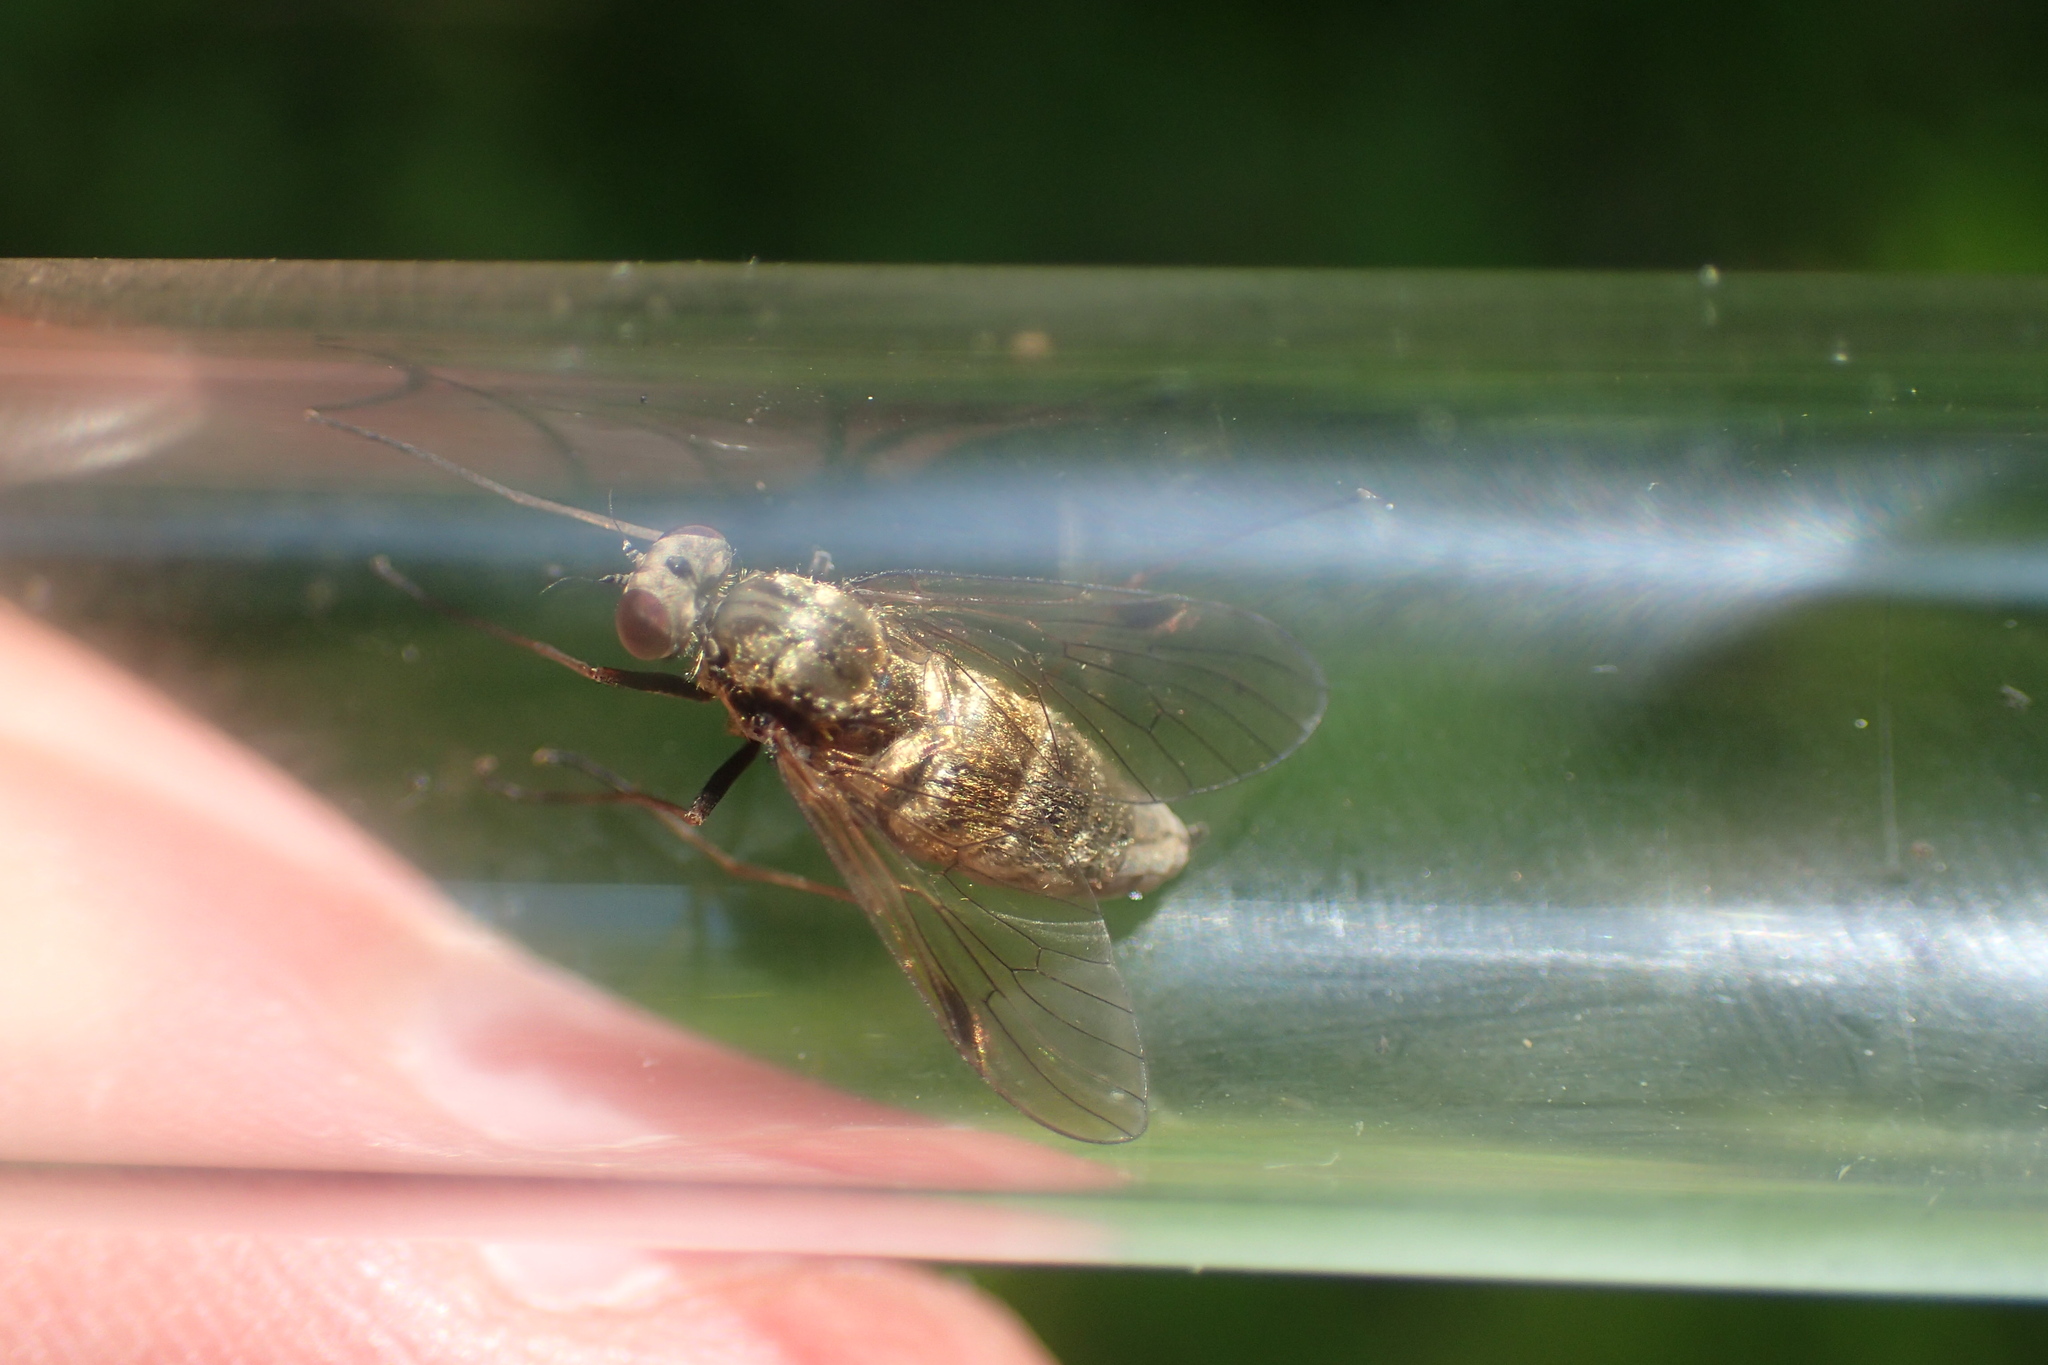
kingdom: Animalia
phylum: Arthropoda
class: Insecta
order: Diptera
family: Rhagionidae
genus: Chrysopilus
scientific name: Chrysopilus cristatus
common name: Black snipefly
